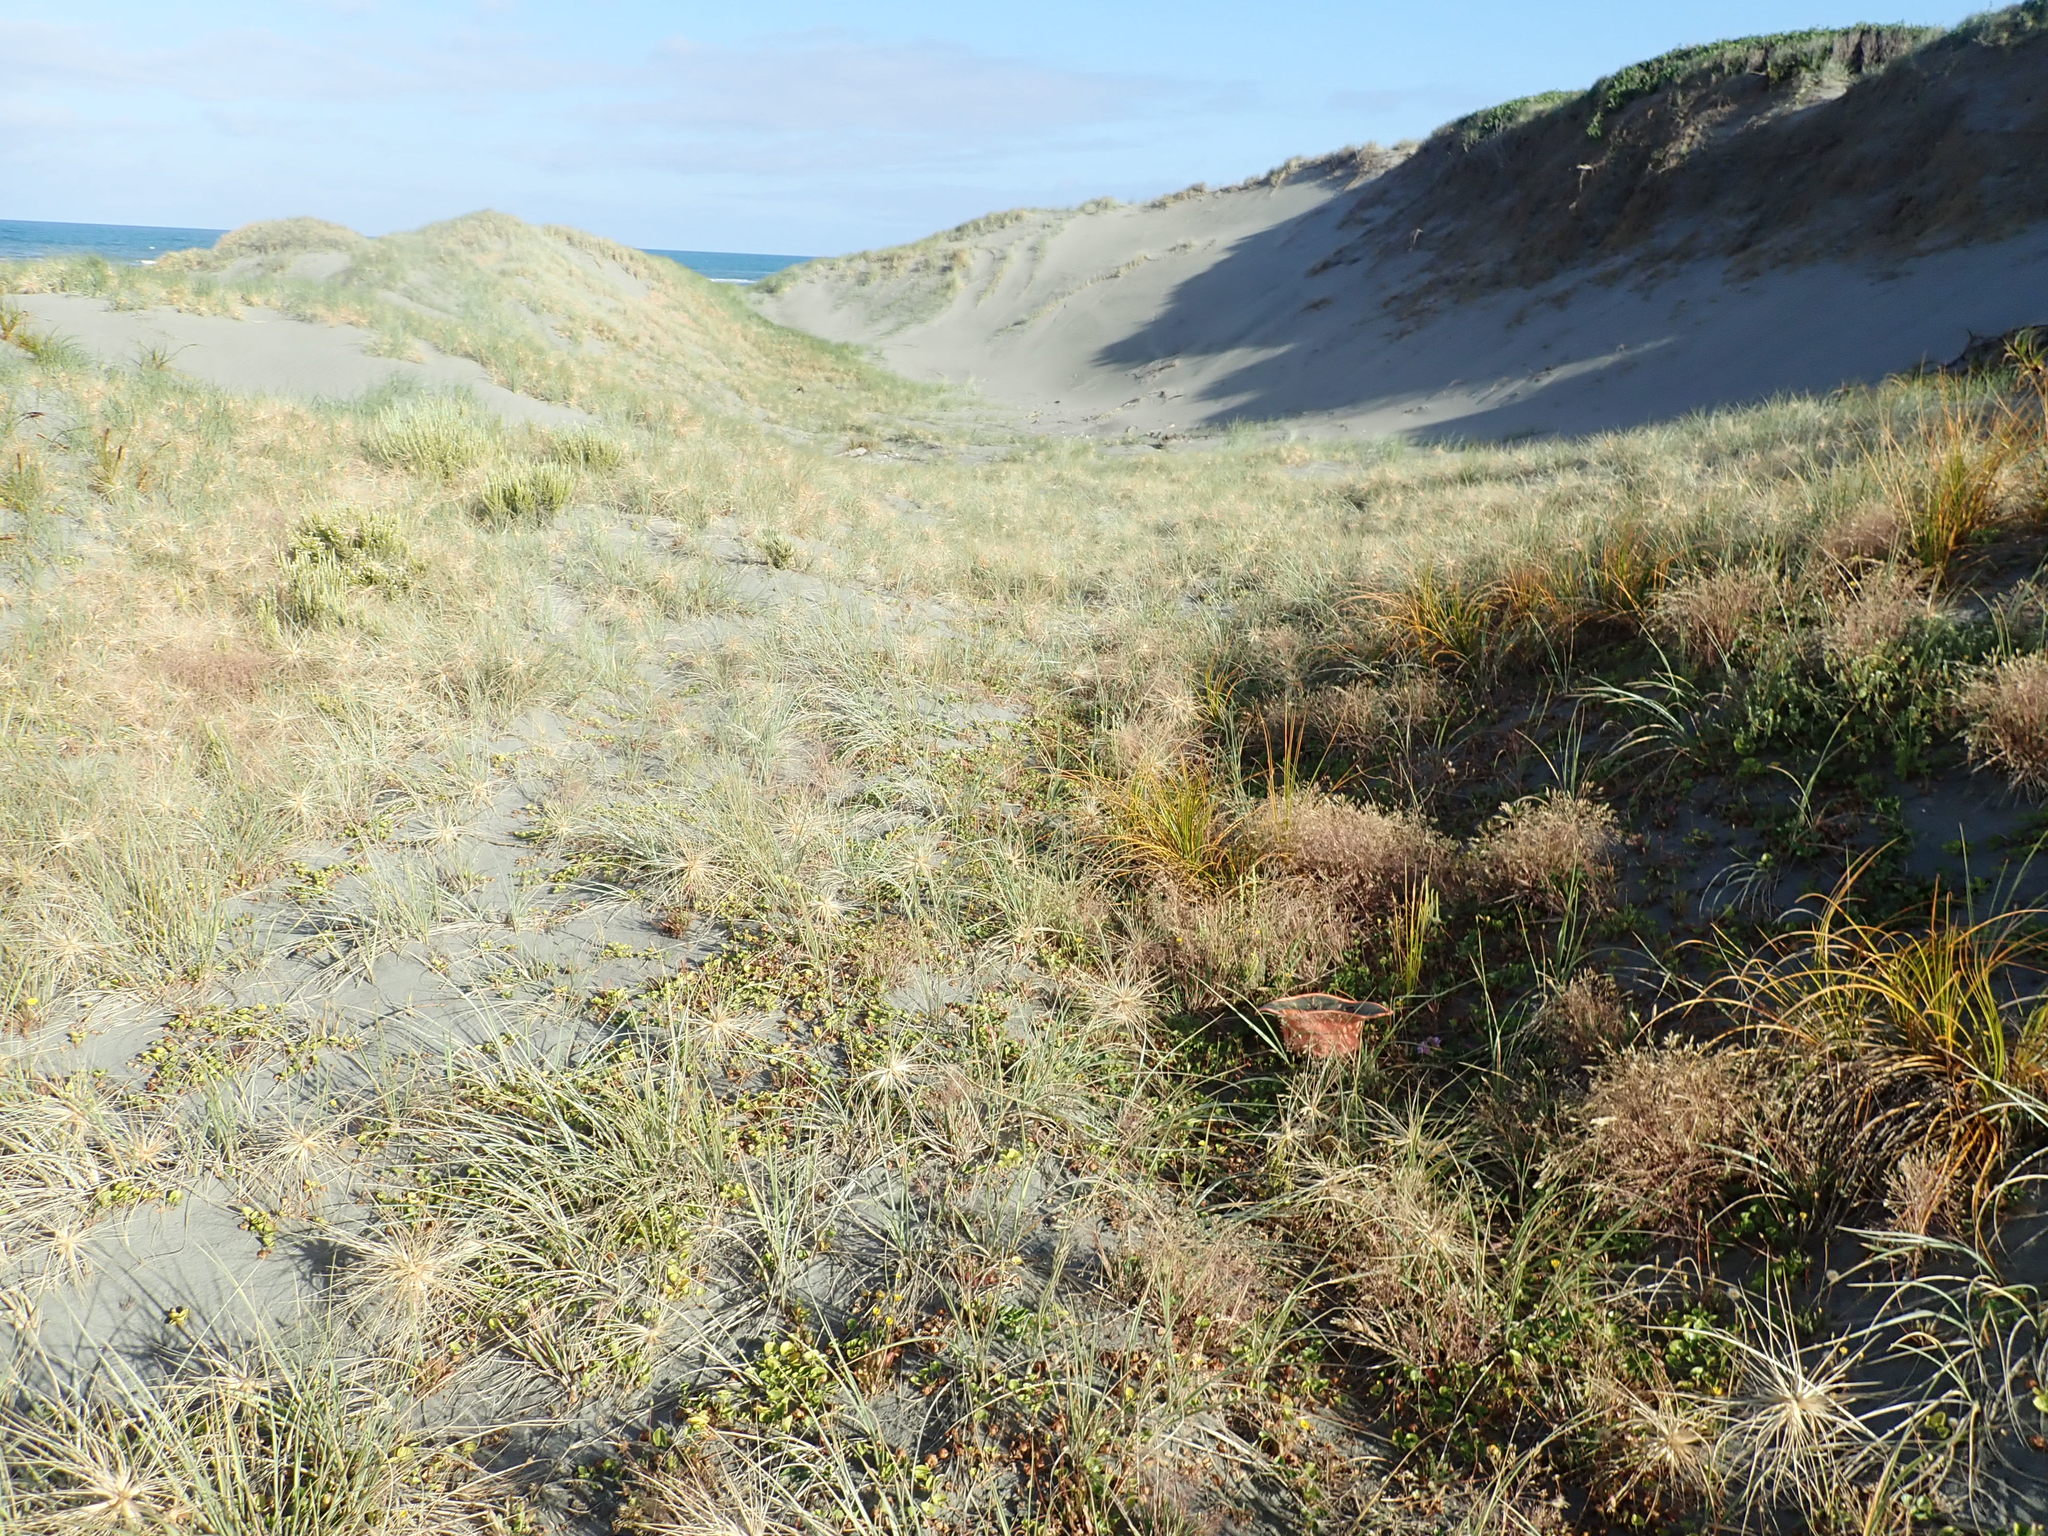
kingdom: Plantae
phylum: Tracheophyta
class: Magnoliopsida
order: Solanales
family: Convolvulaceae
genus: Calystegia
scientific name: Calystegia soldanella
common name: Sea bindweed
